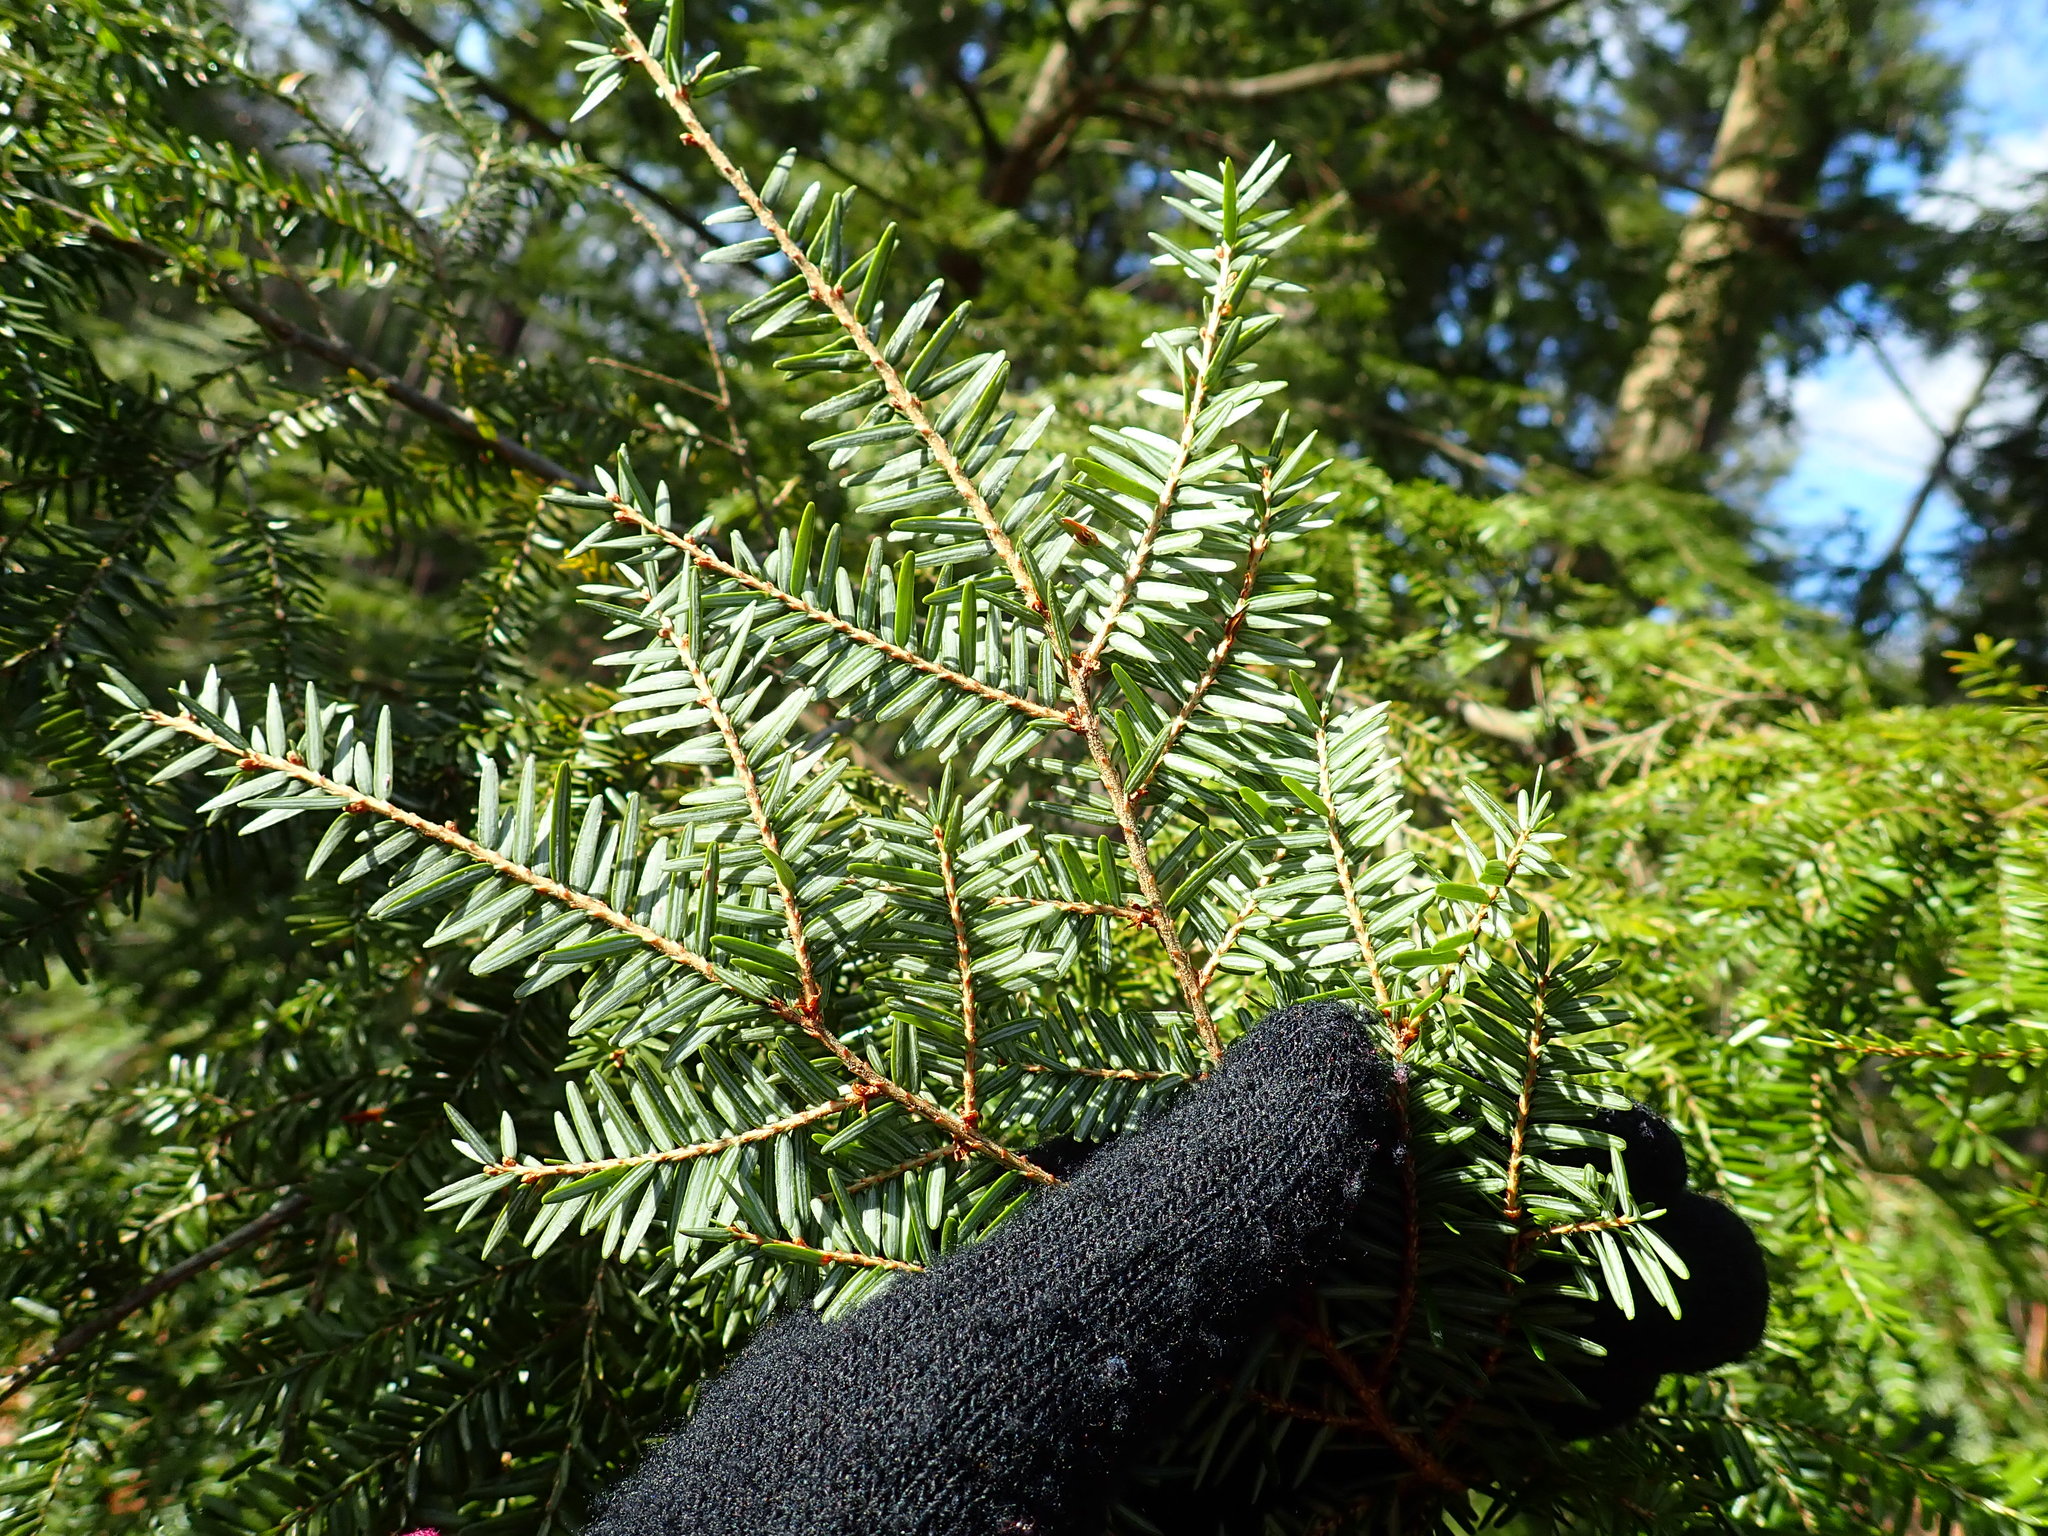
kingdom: Plantae
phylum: Tracheophyta
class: Pinopsida
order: Pinales
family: Pinaceae
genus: Tsuga
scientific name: Tsuga canadensis
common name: Eastern hemlock
